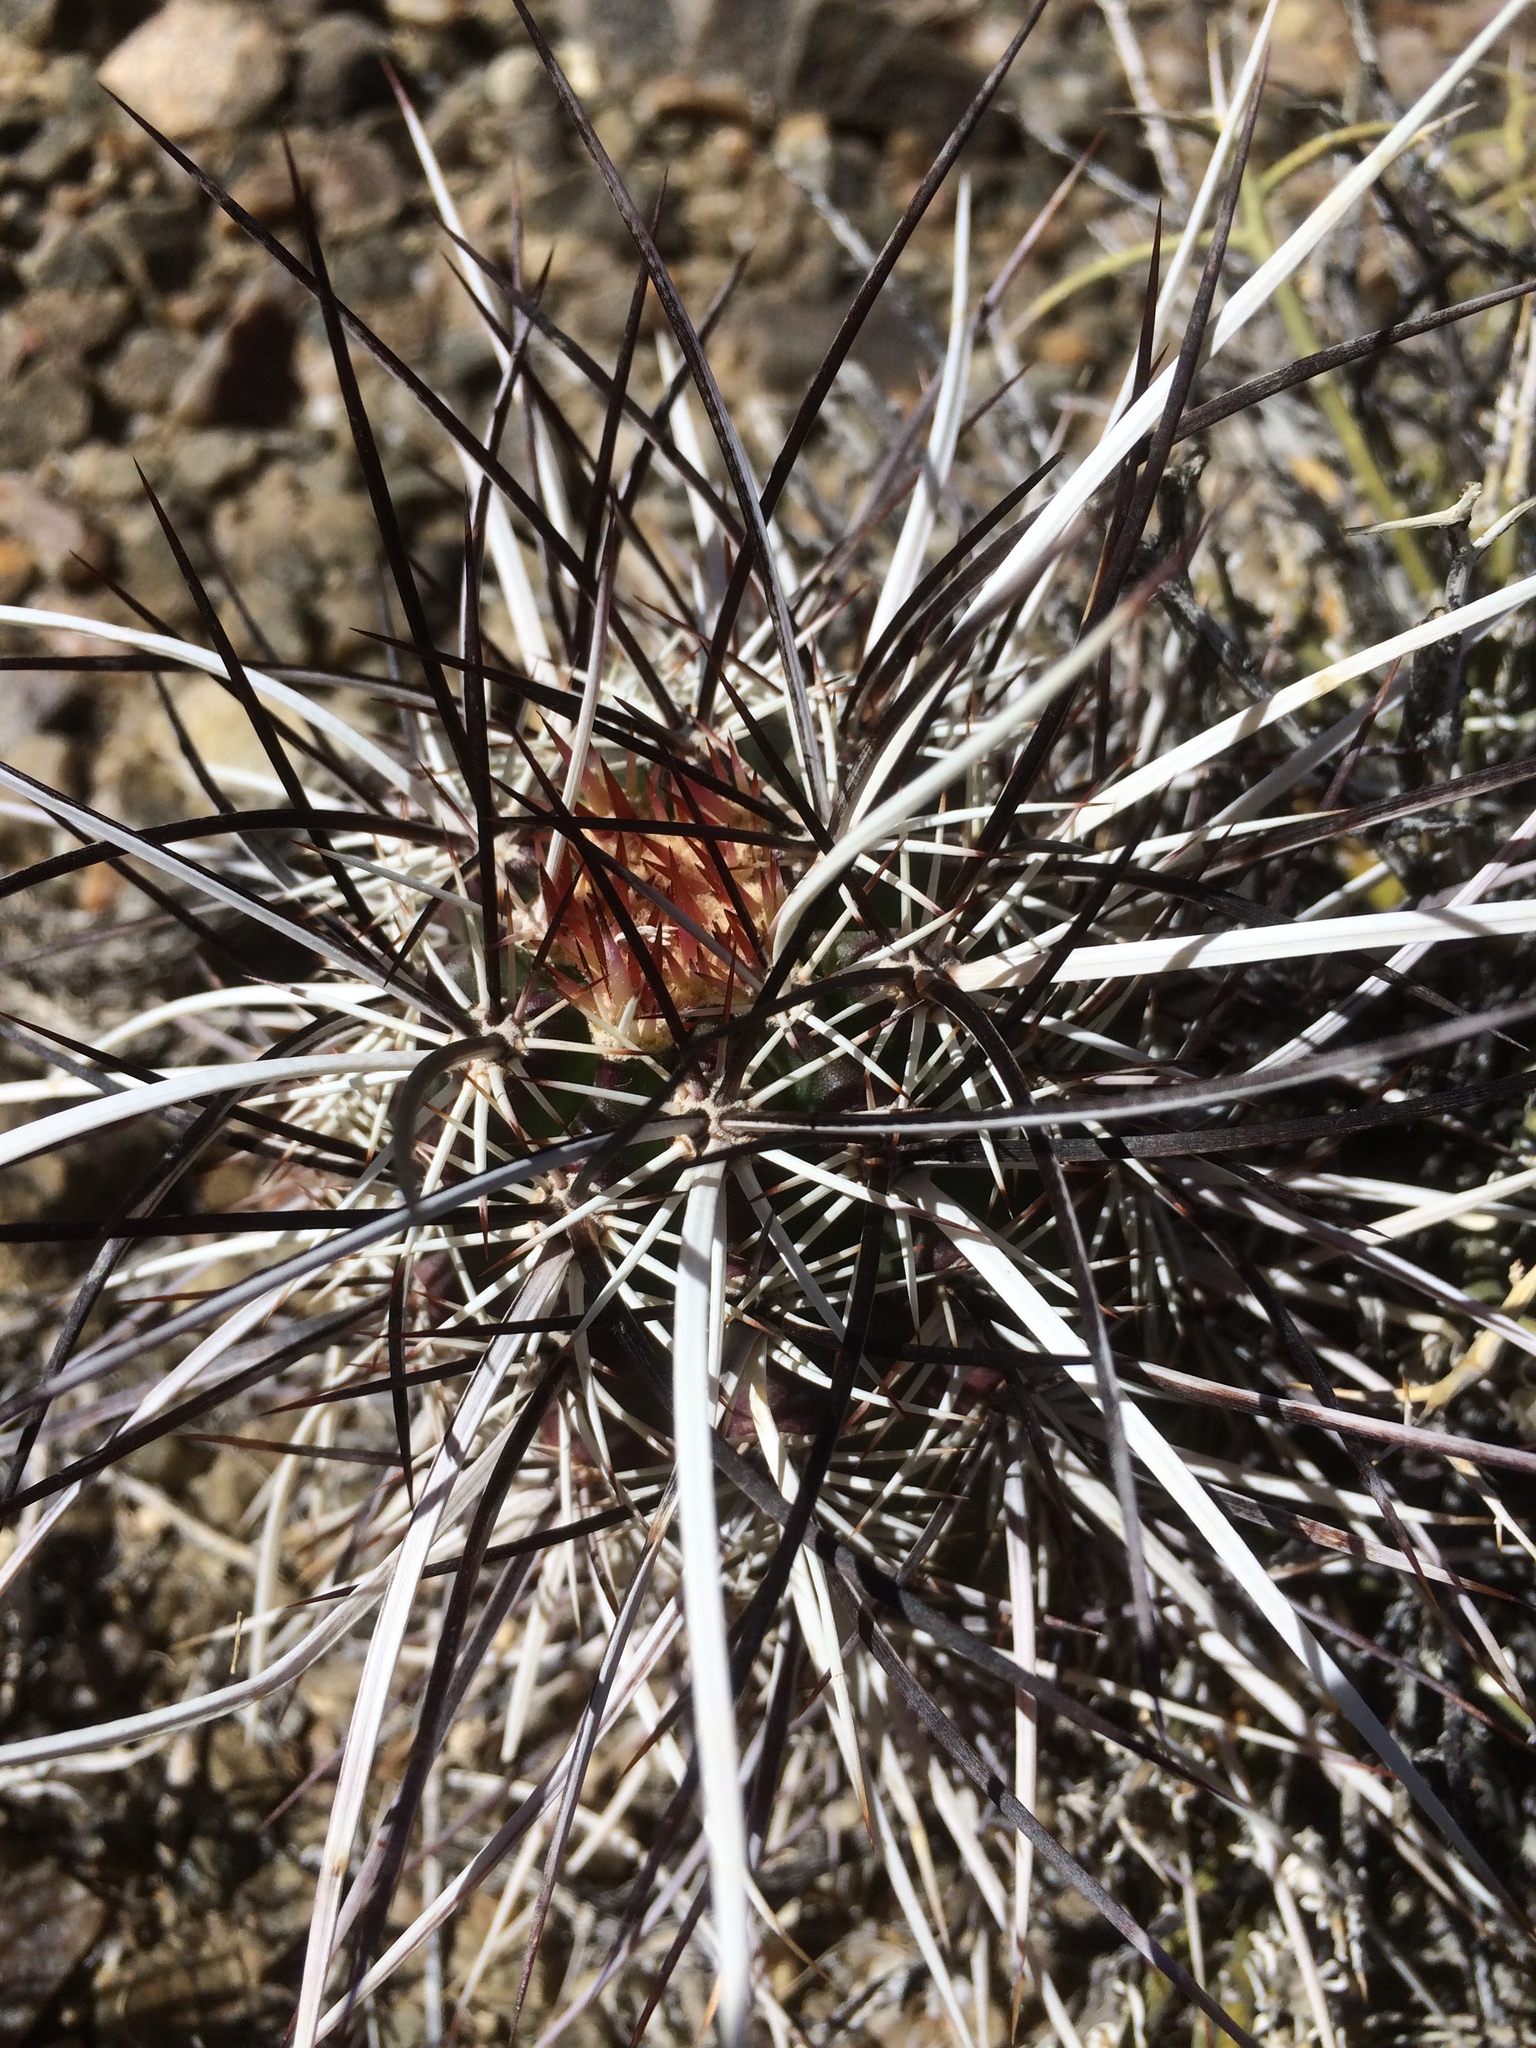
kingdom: Plantae
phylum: Tracheophyta
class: Magnoliopsida
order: Caryophyllales
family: Cactaceae
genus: Echinocereus
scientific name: Echinocereus engelmannii
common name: Engelmann's hedgehog cactus
